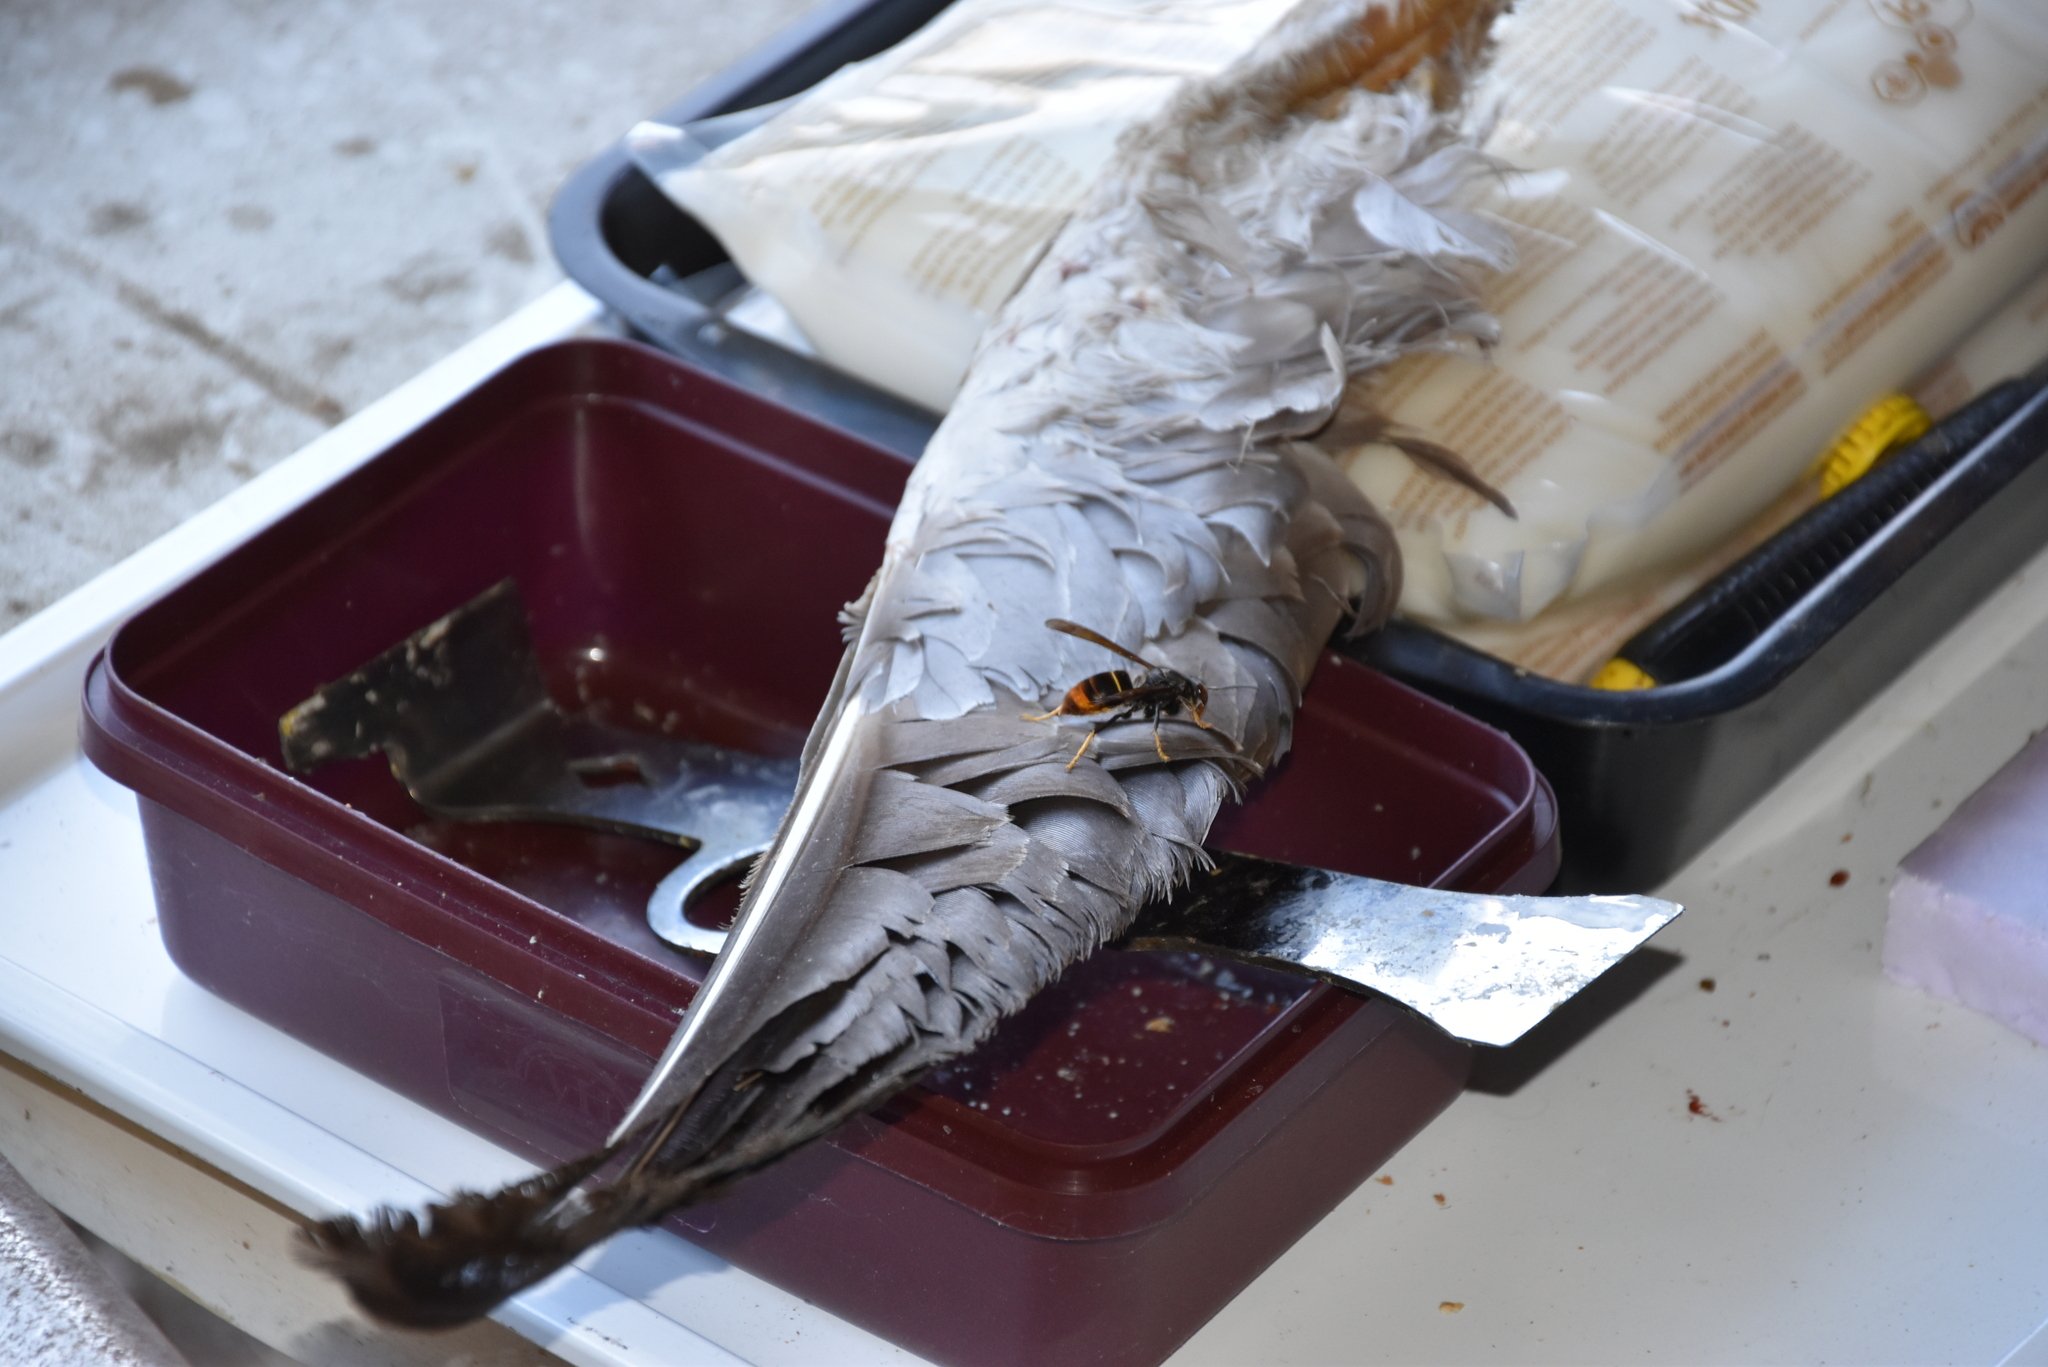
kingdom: Animalia
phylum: Arthropoda
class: Insecta
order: Hymenoptera
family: Vespidae
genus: Vespa
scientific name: Vespa velutina
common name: Asian hornet
